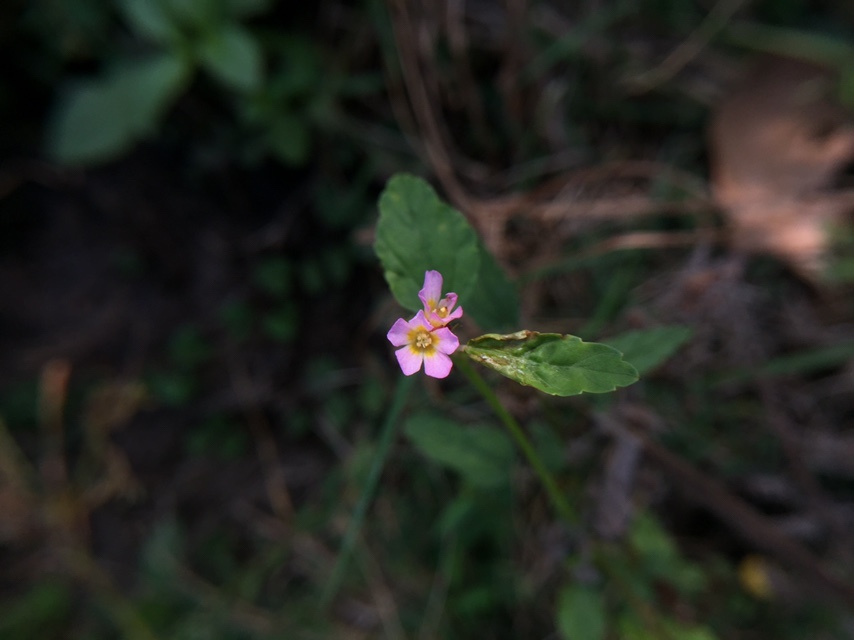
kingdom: Plantae
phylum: Tracheophyta
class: Magnoliopsida
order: Malvales
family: Malvaceae
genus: Melochia
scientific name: Melochia corchorifolia
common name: Chocolateweed
